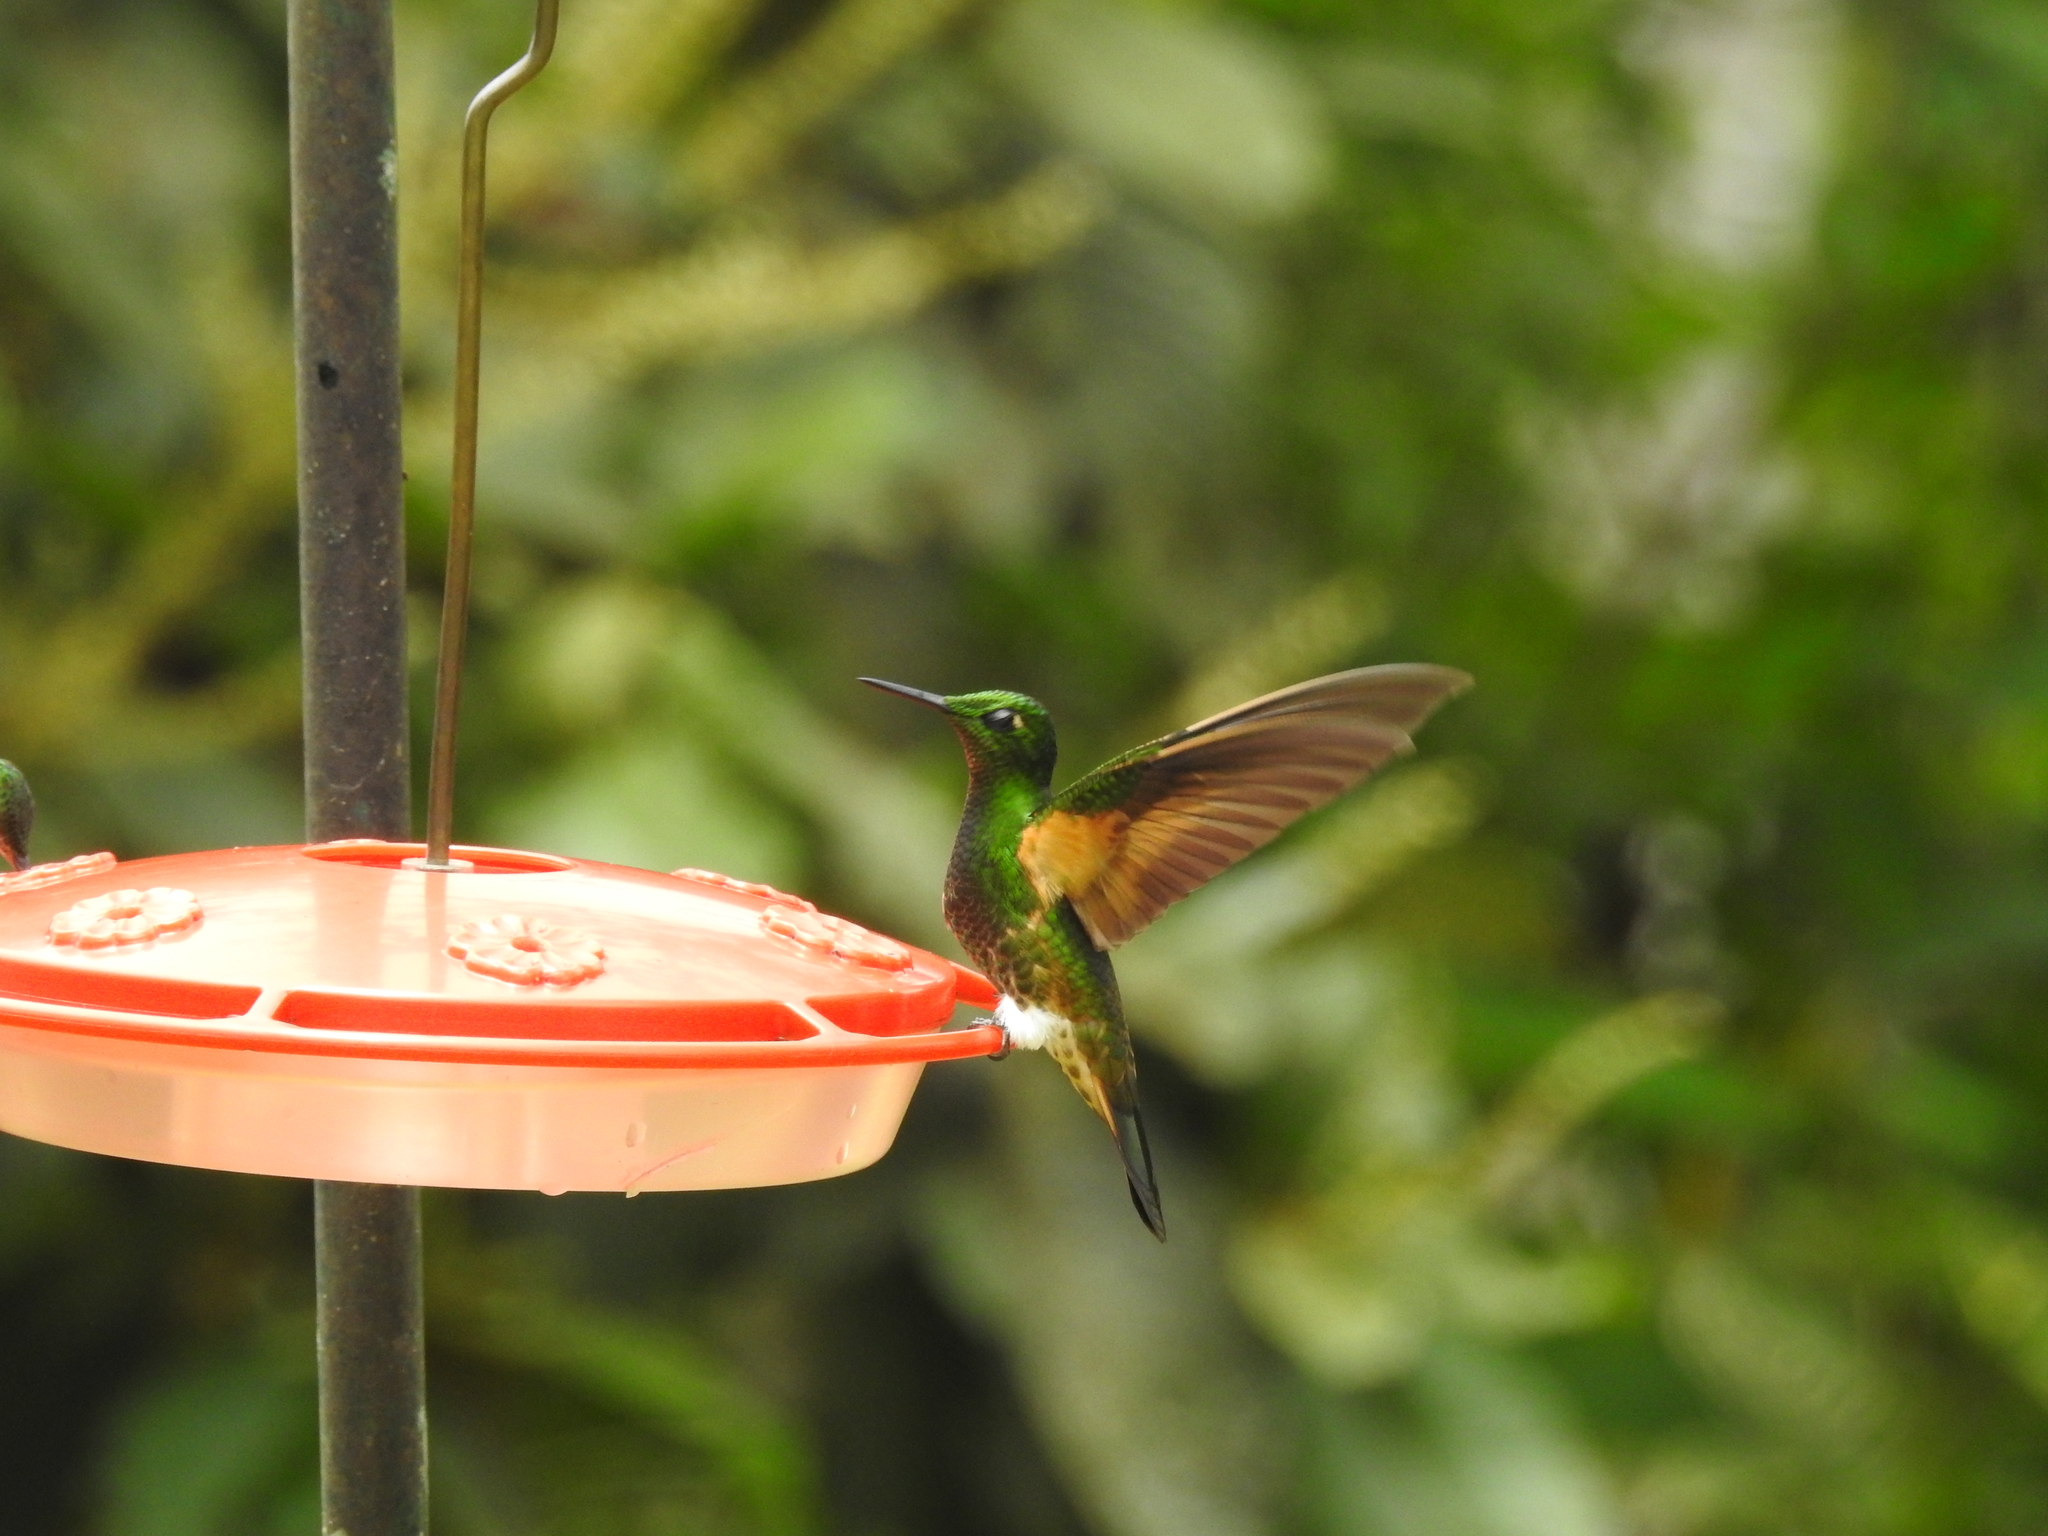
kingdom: Animalia
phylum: Chordata
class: Aves
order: Apodiformes
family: Trochilidae
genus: Boissonneaua
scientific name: Boissonneaua flavescens
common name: Buff-tailed coronet
